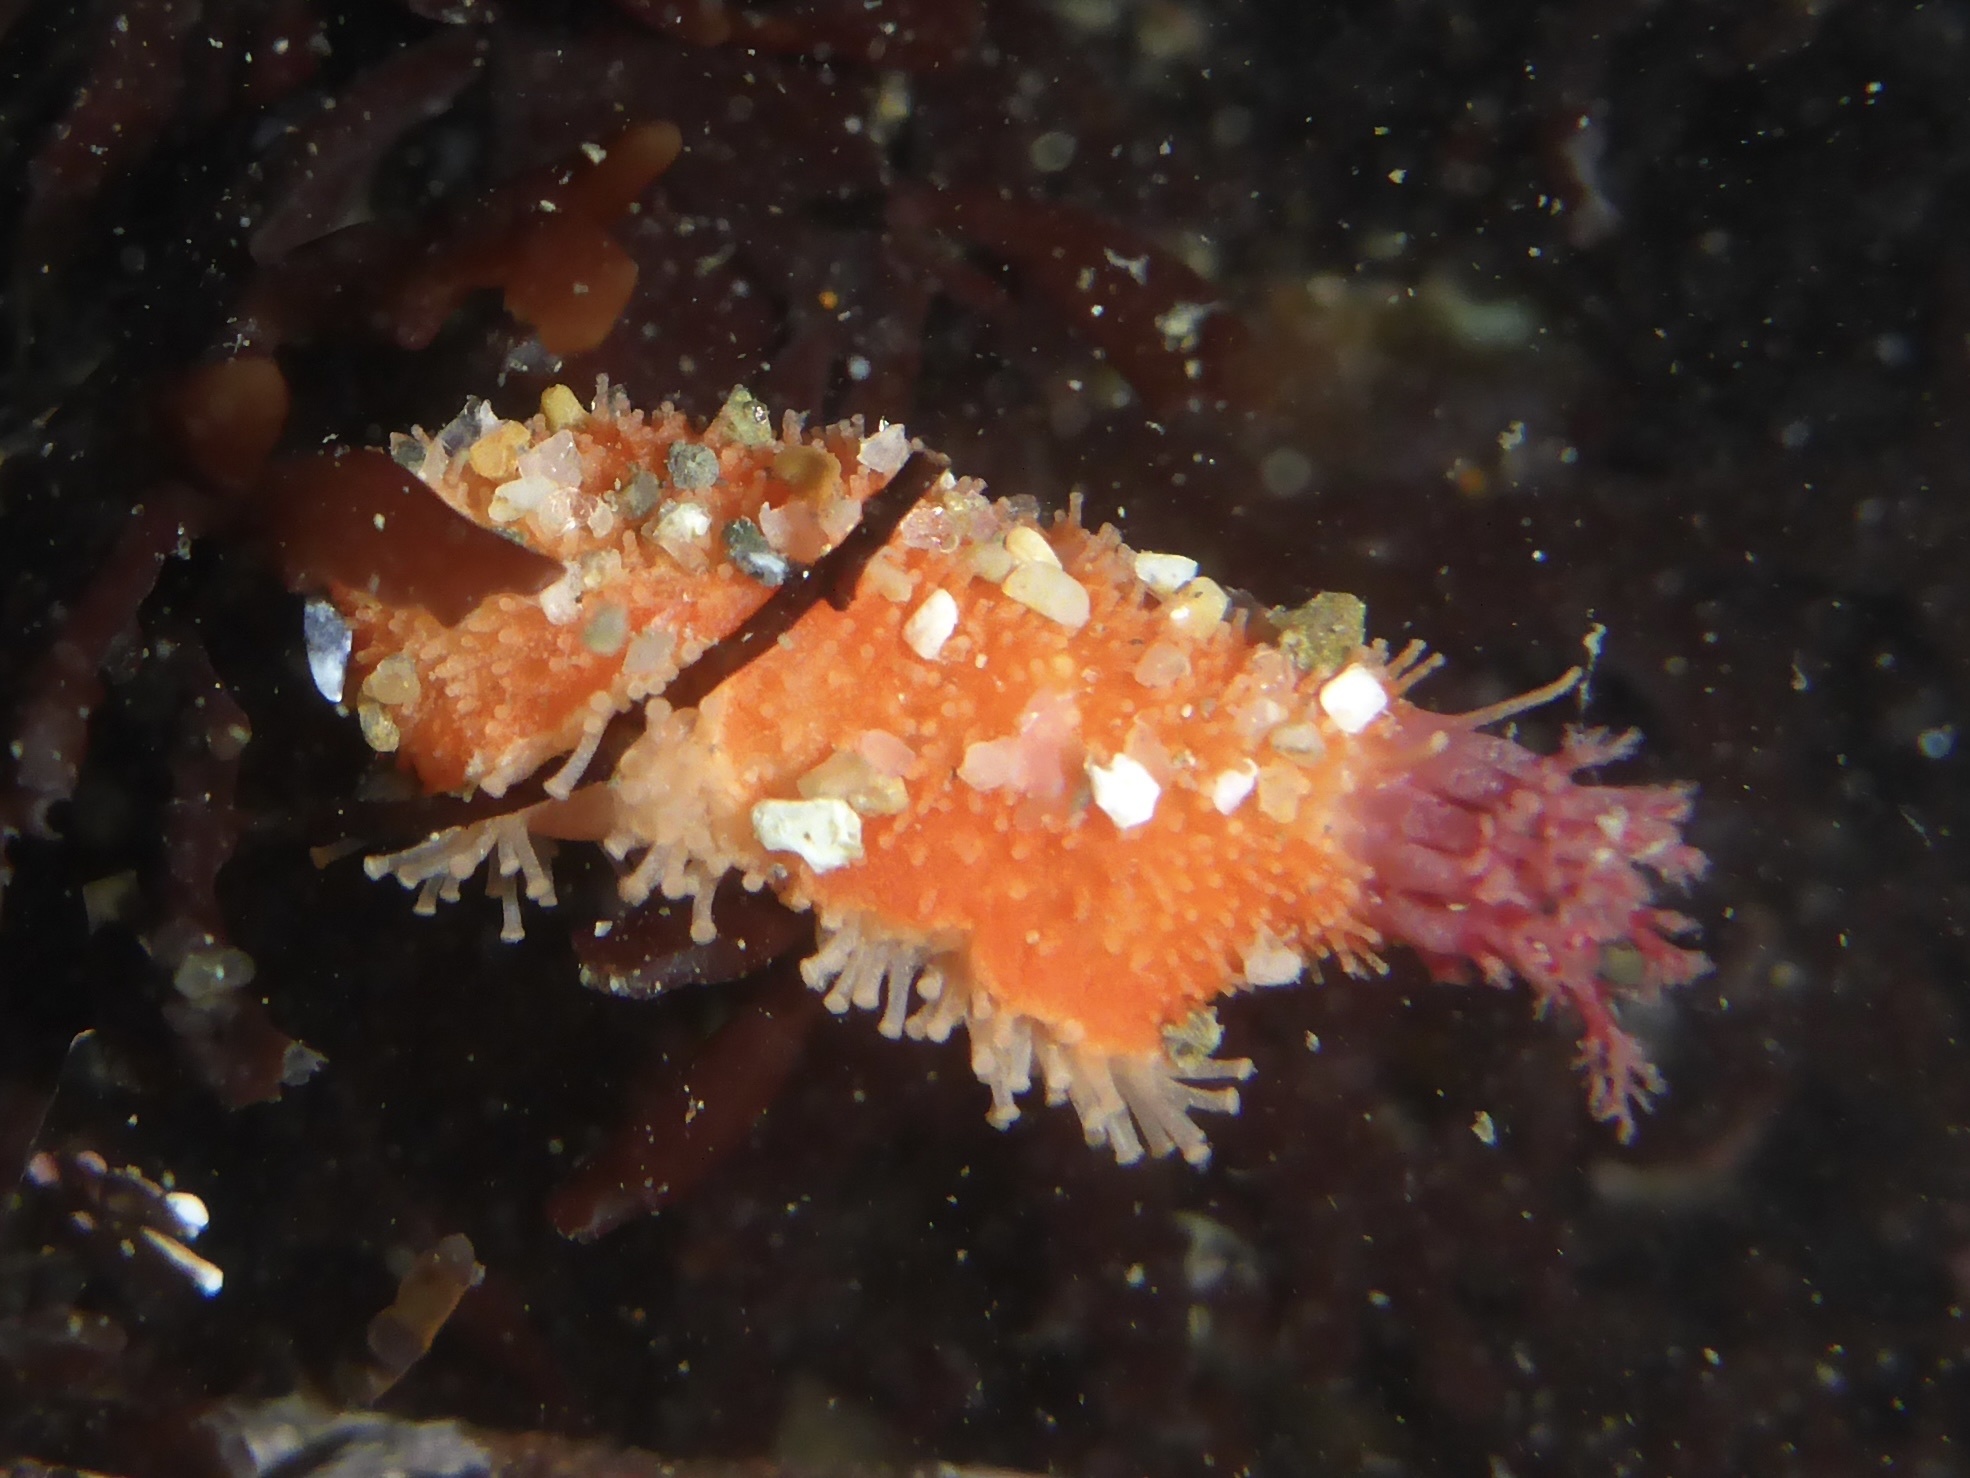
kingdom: Animalia
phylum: Echinodermata
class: Holothuroidea
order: Dendrochirotida
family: Psolidae
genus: Lissothuria
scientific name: Lissothuria nutriens
